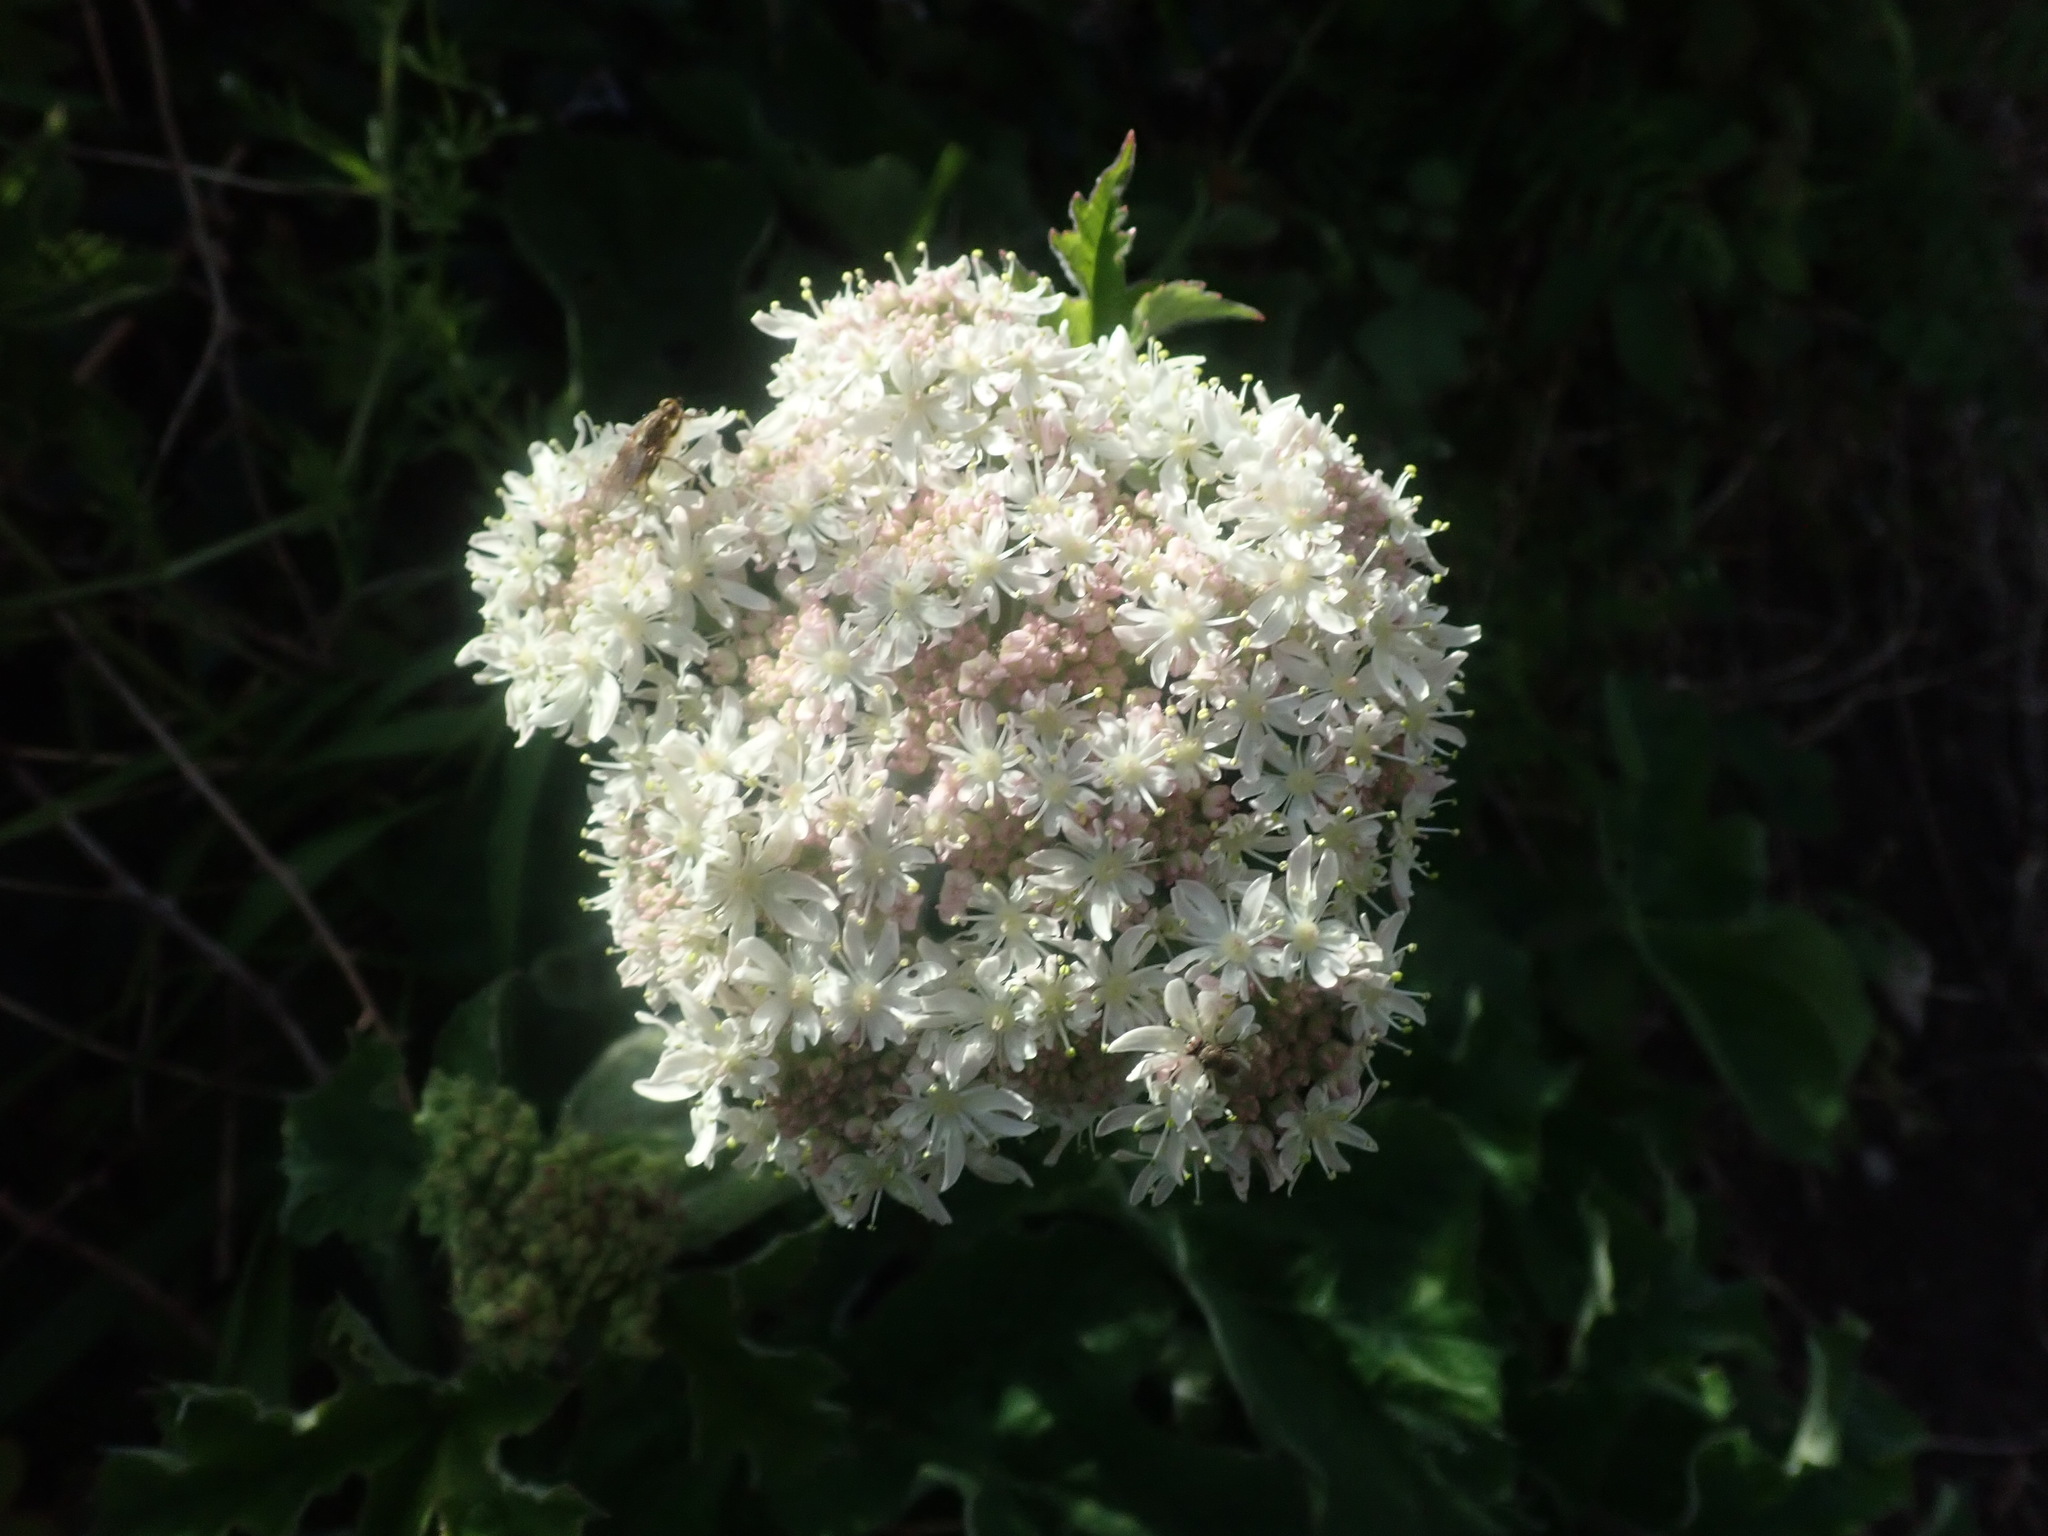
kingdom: Plantae
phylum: Tracheophyta
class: Magnoliopsida
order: Apiales
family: Apiaceae
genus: Heracleum
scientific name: Heracleum sphondylium
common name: Hogweed
